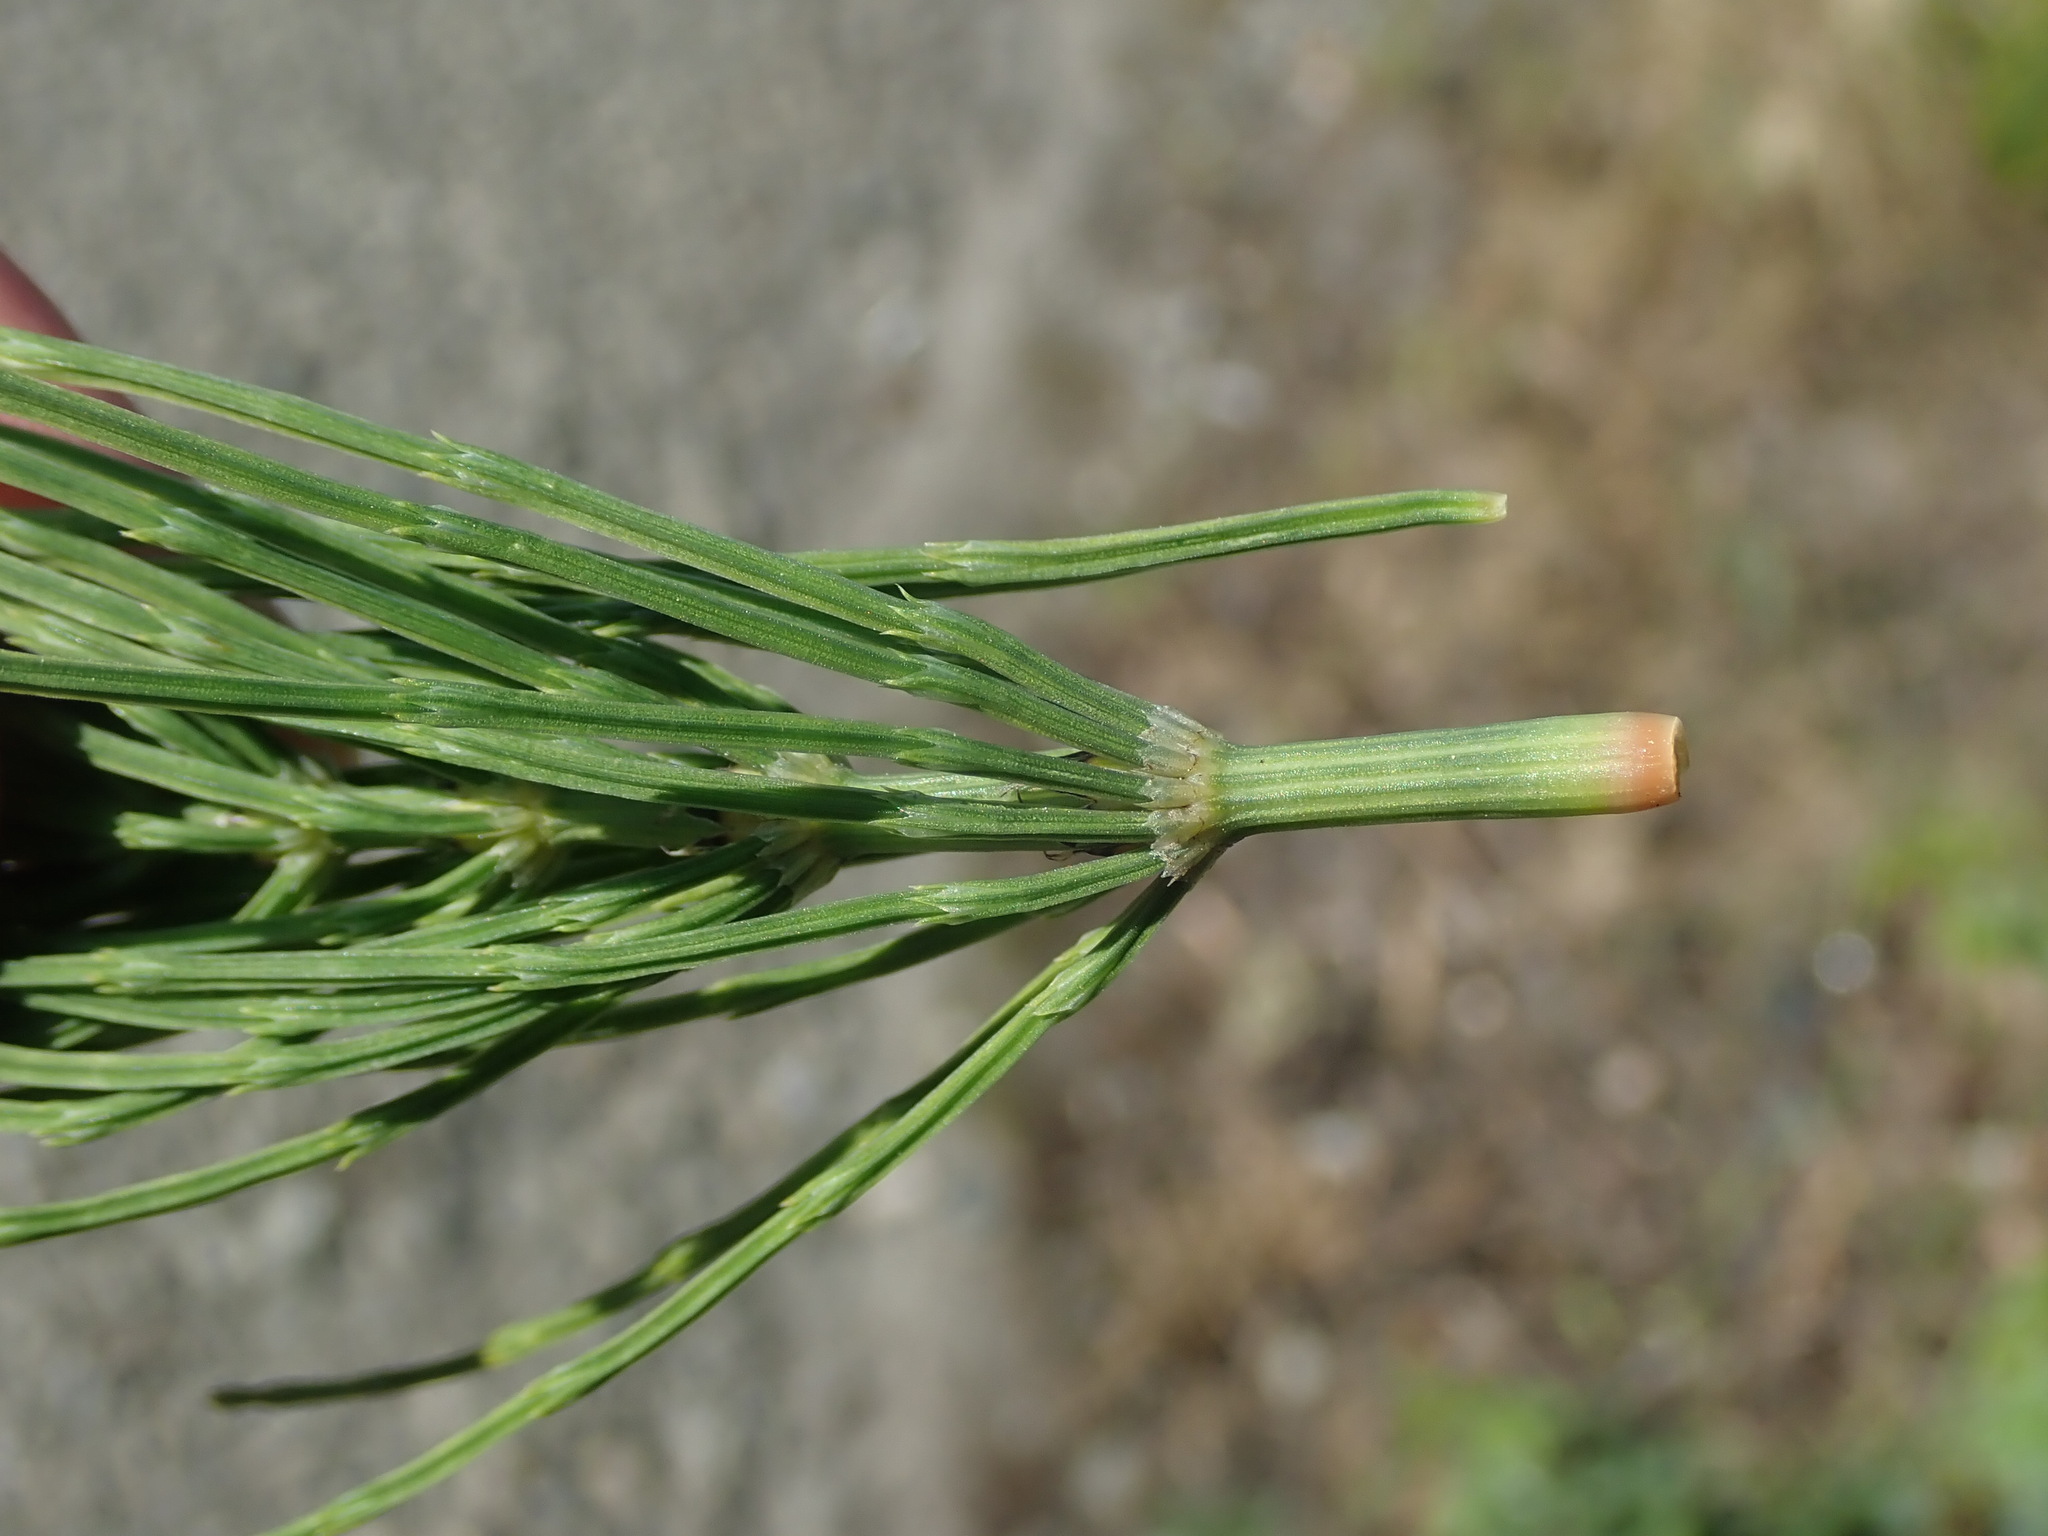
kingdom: Plantae
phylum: Tracheophyta
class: Polypodiopsida
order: Equisetales
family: Equisetaceae
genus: Equisetum
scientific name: Equisetum arvense
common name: Field horsetail
